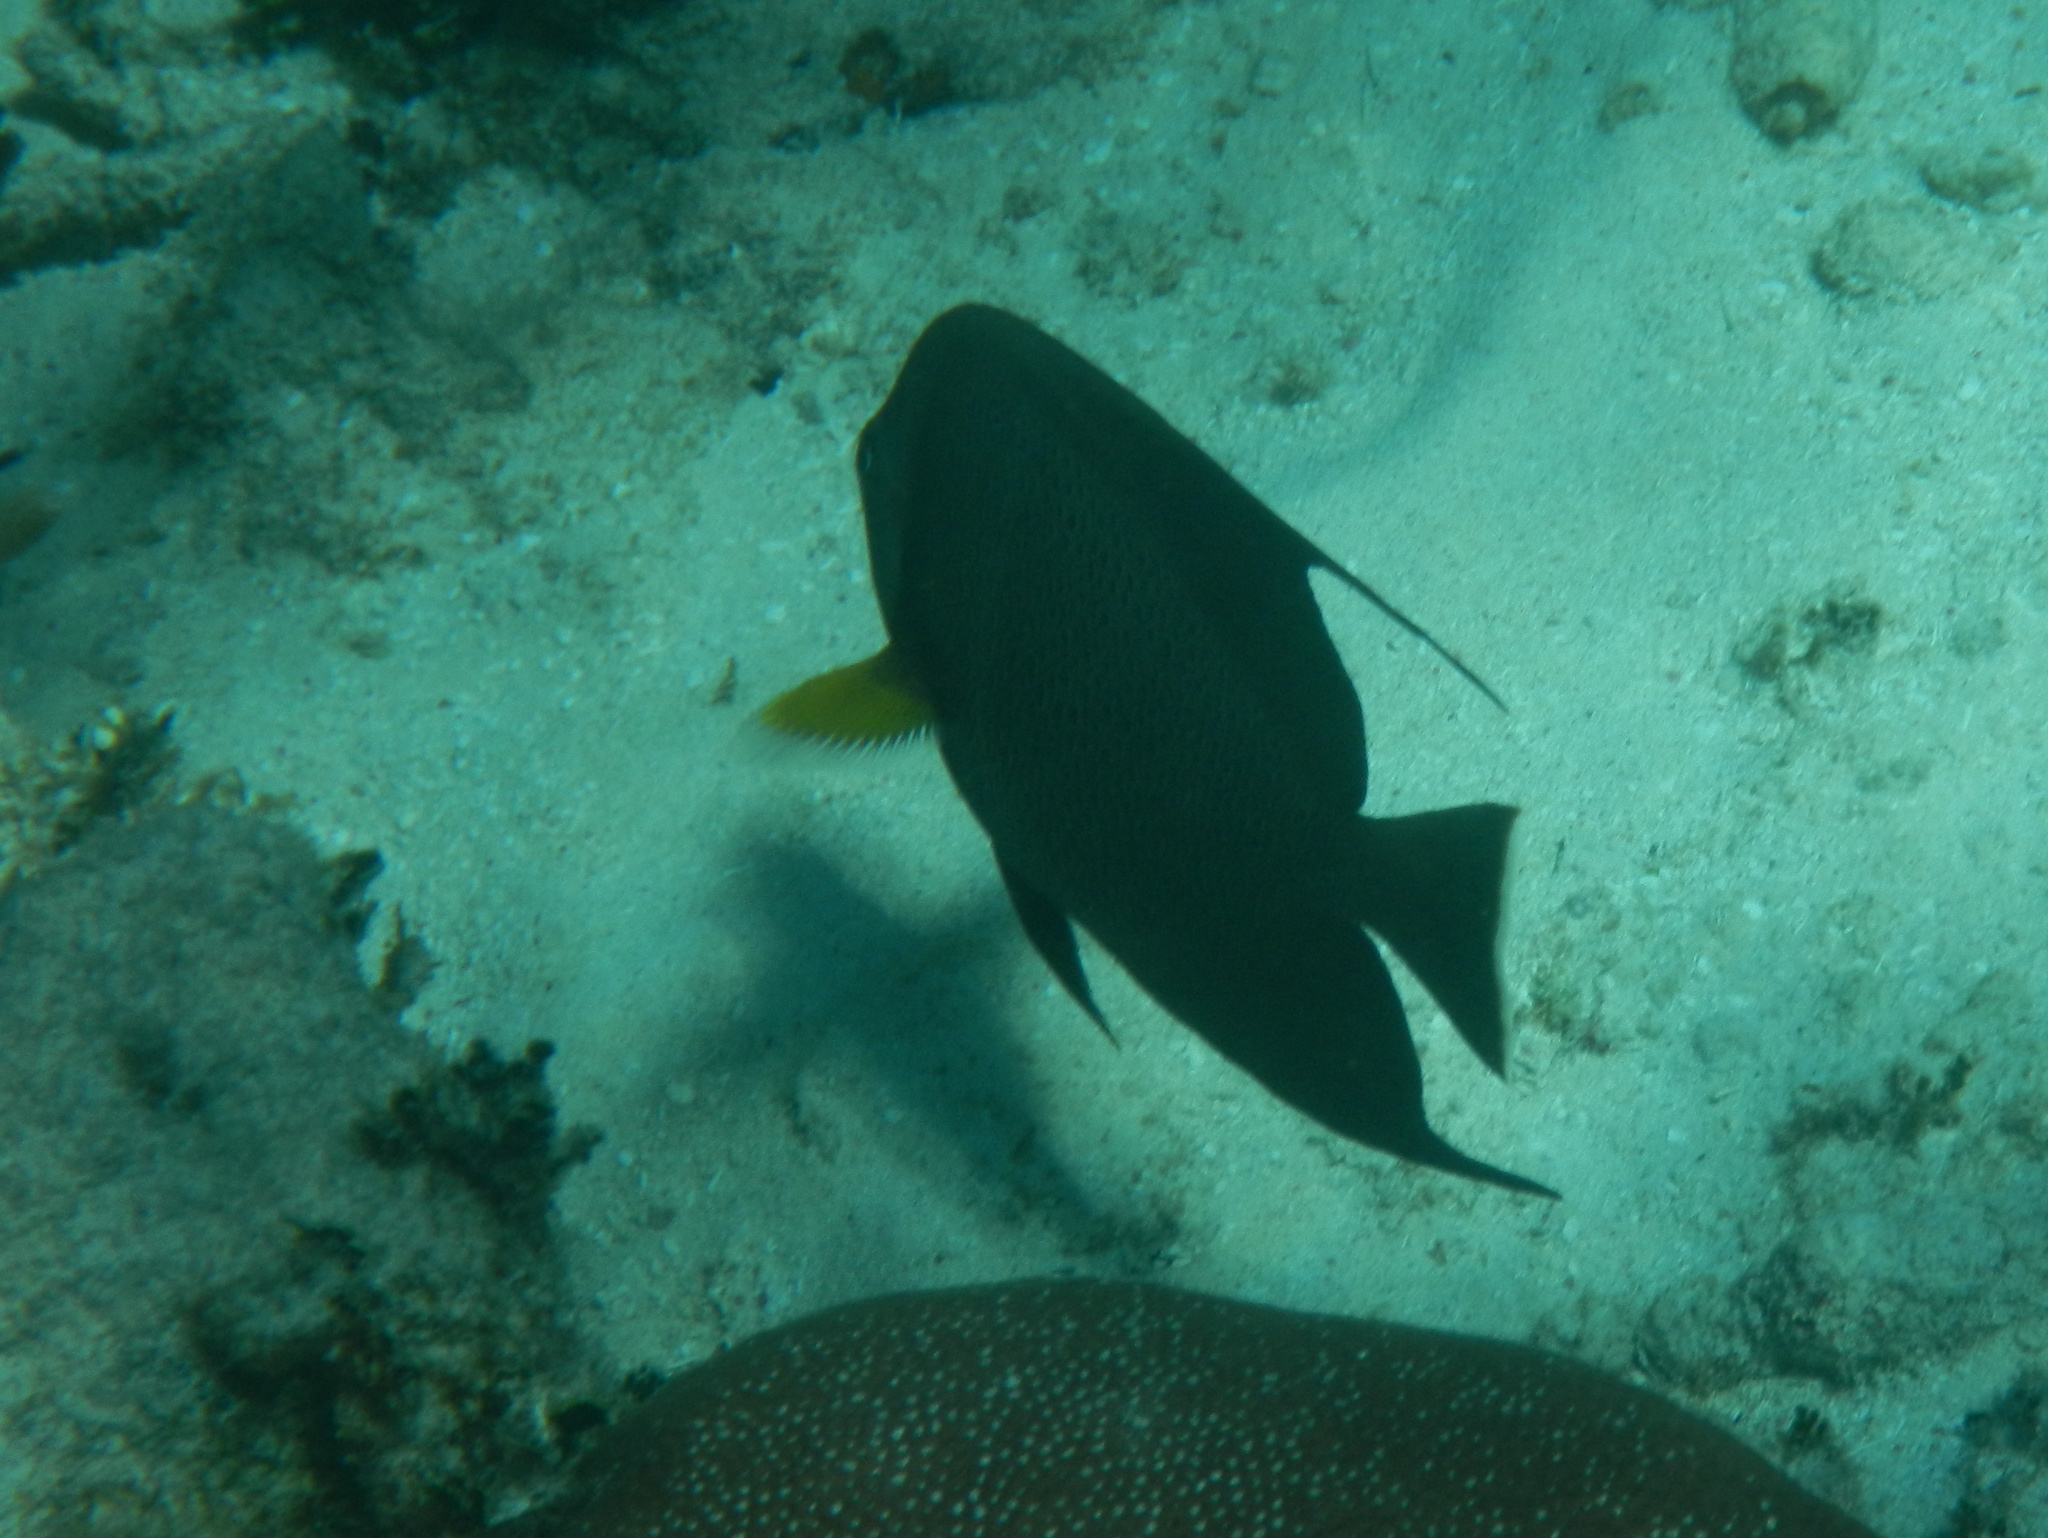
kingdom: Animalia
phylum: Chordata
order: Perciformes
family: Pomacanthidae
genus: Pomacanthus
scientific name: Pomacanthus arcuatus
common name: Gray angelfish
